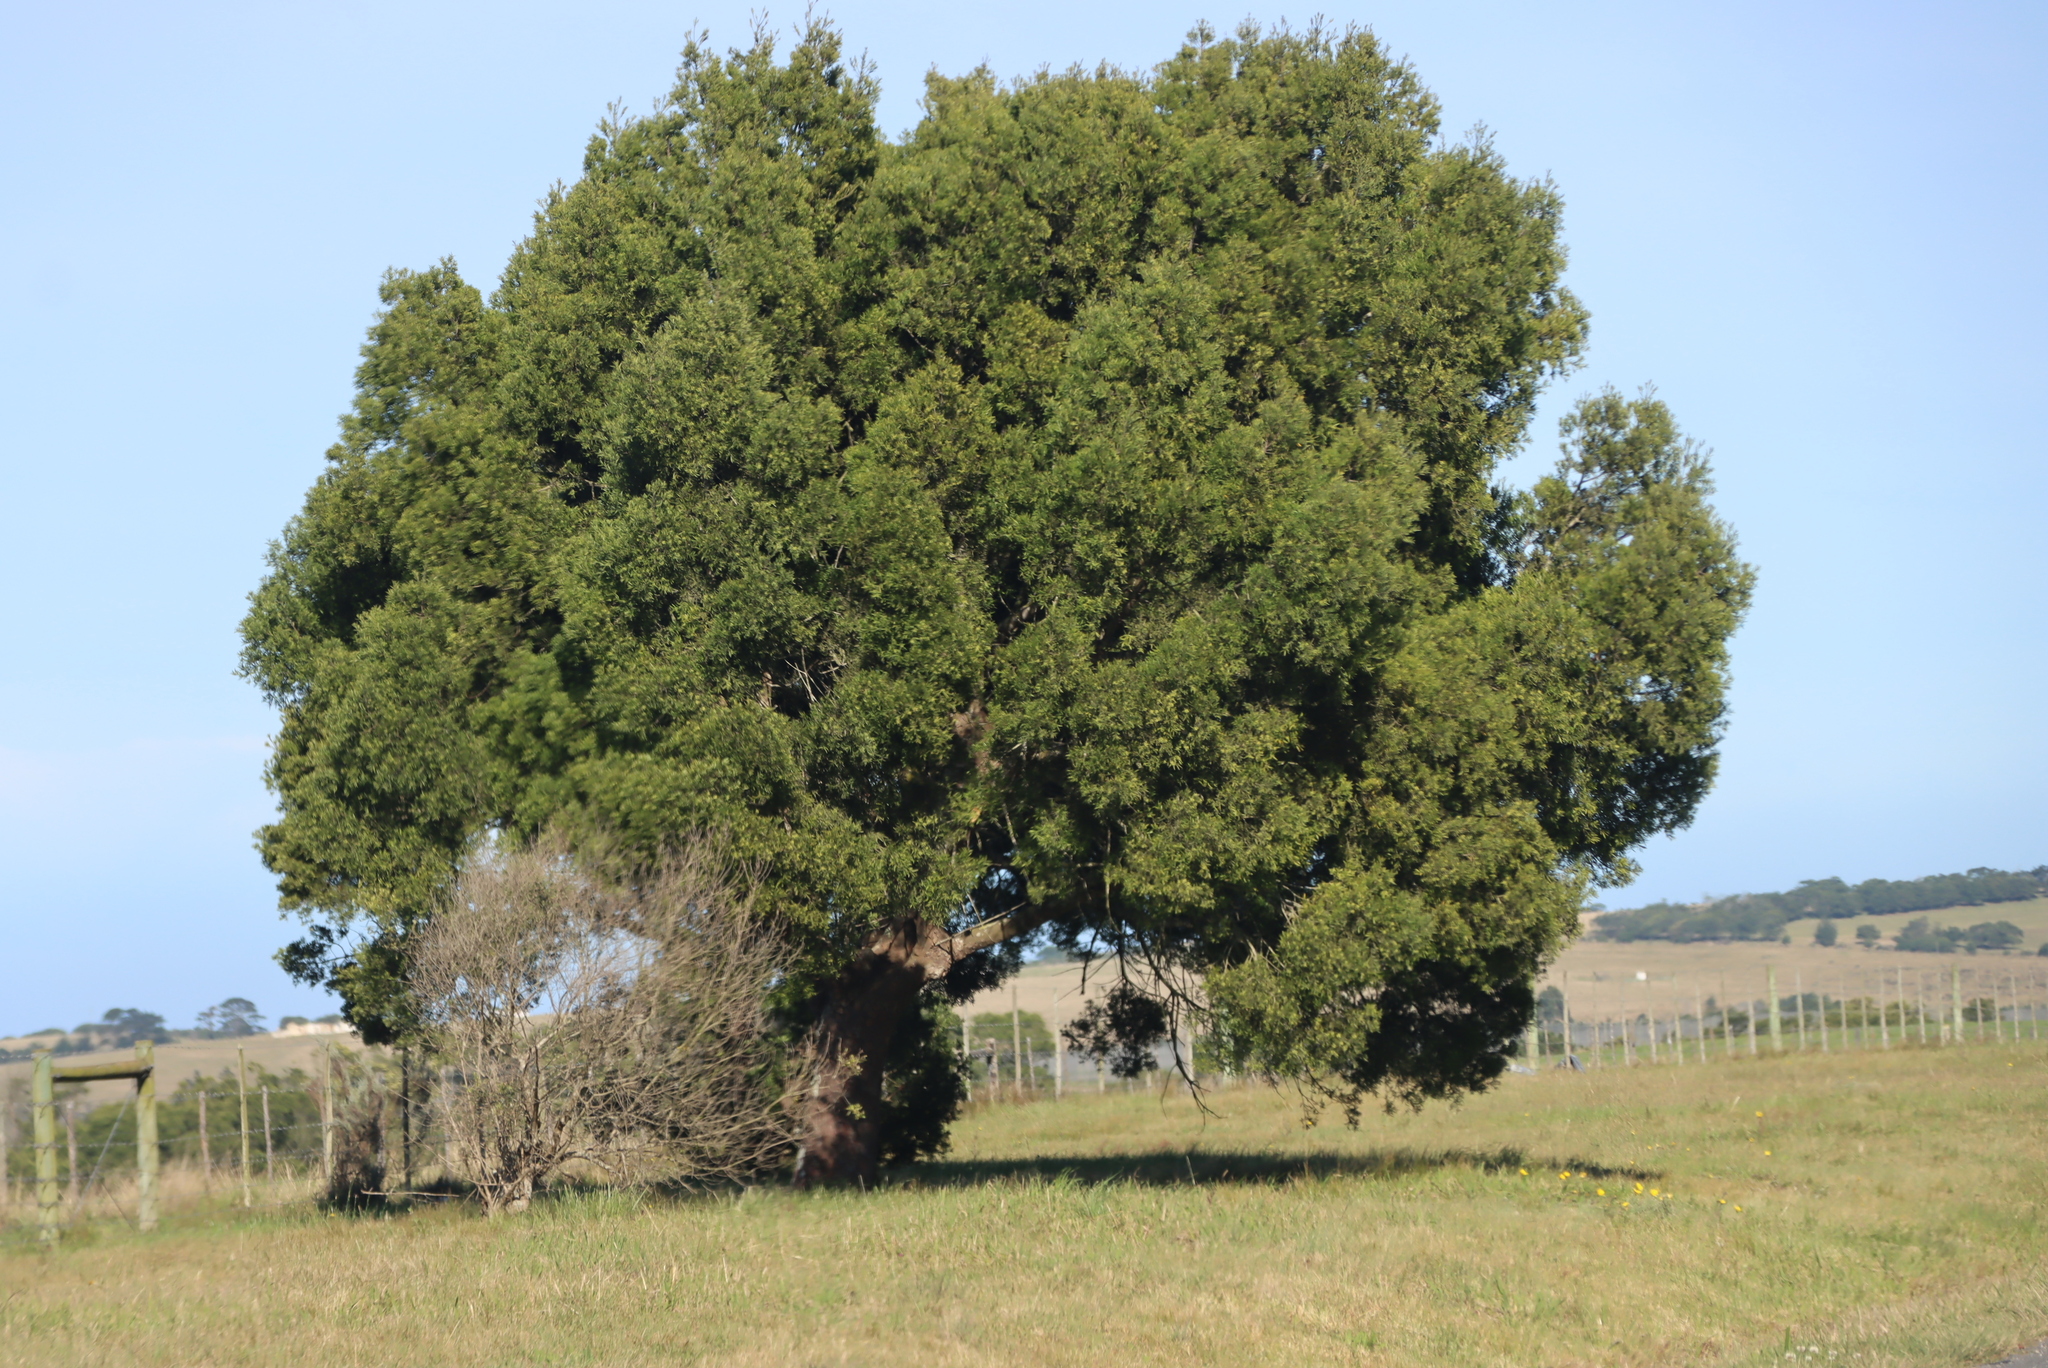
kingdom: Plantae
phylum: Tracheophyta
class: Pinopsida
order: Pinales
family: Podocarpaceae
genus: Afrocarpus
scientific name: Afrocarpus falcatus
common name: Bastard yellowwood
